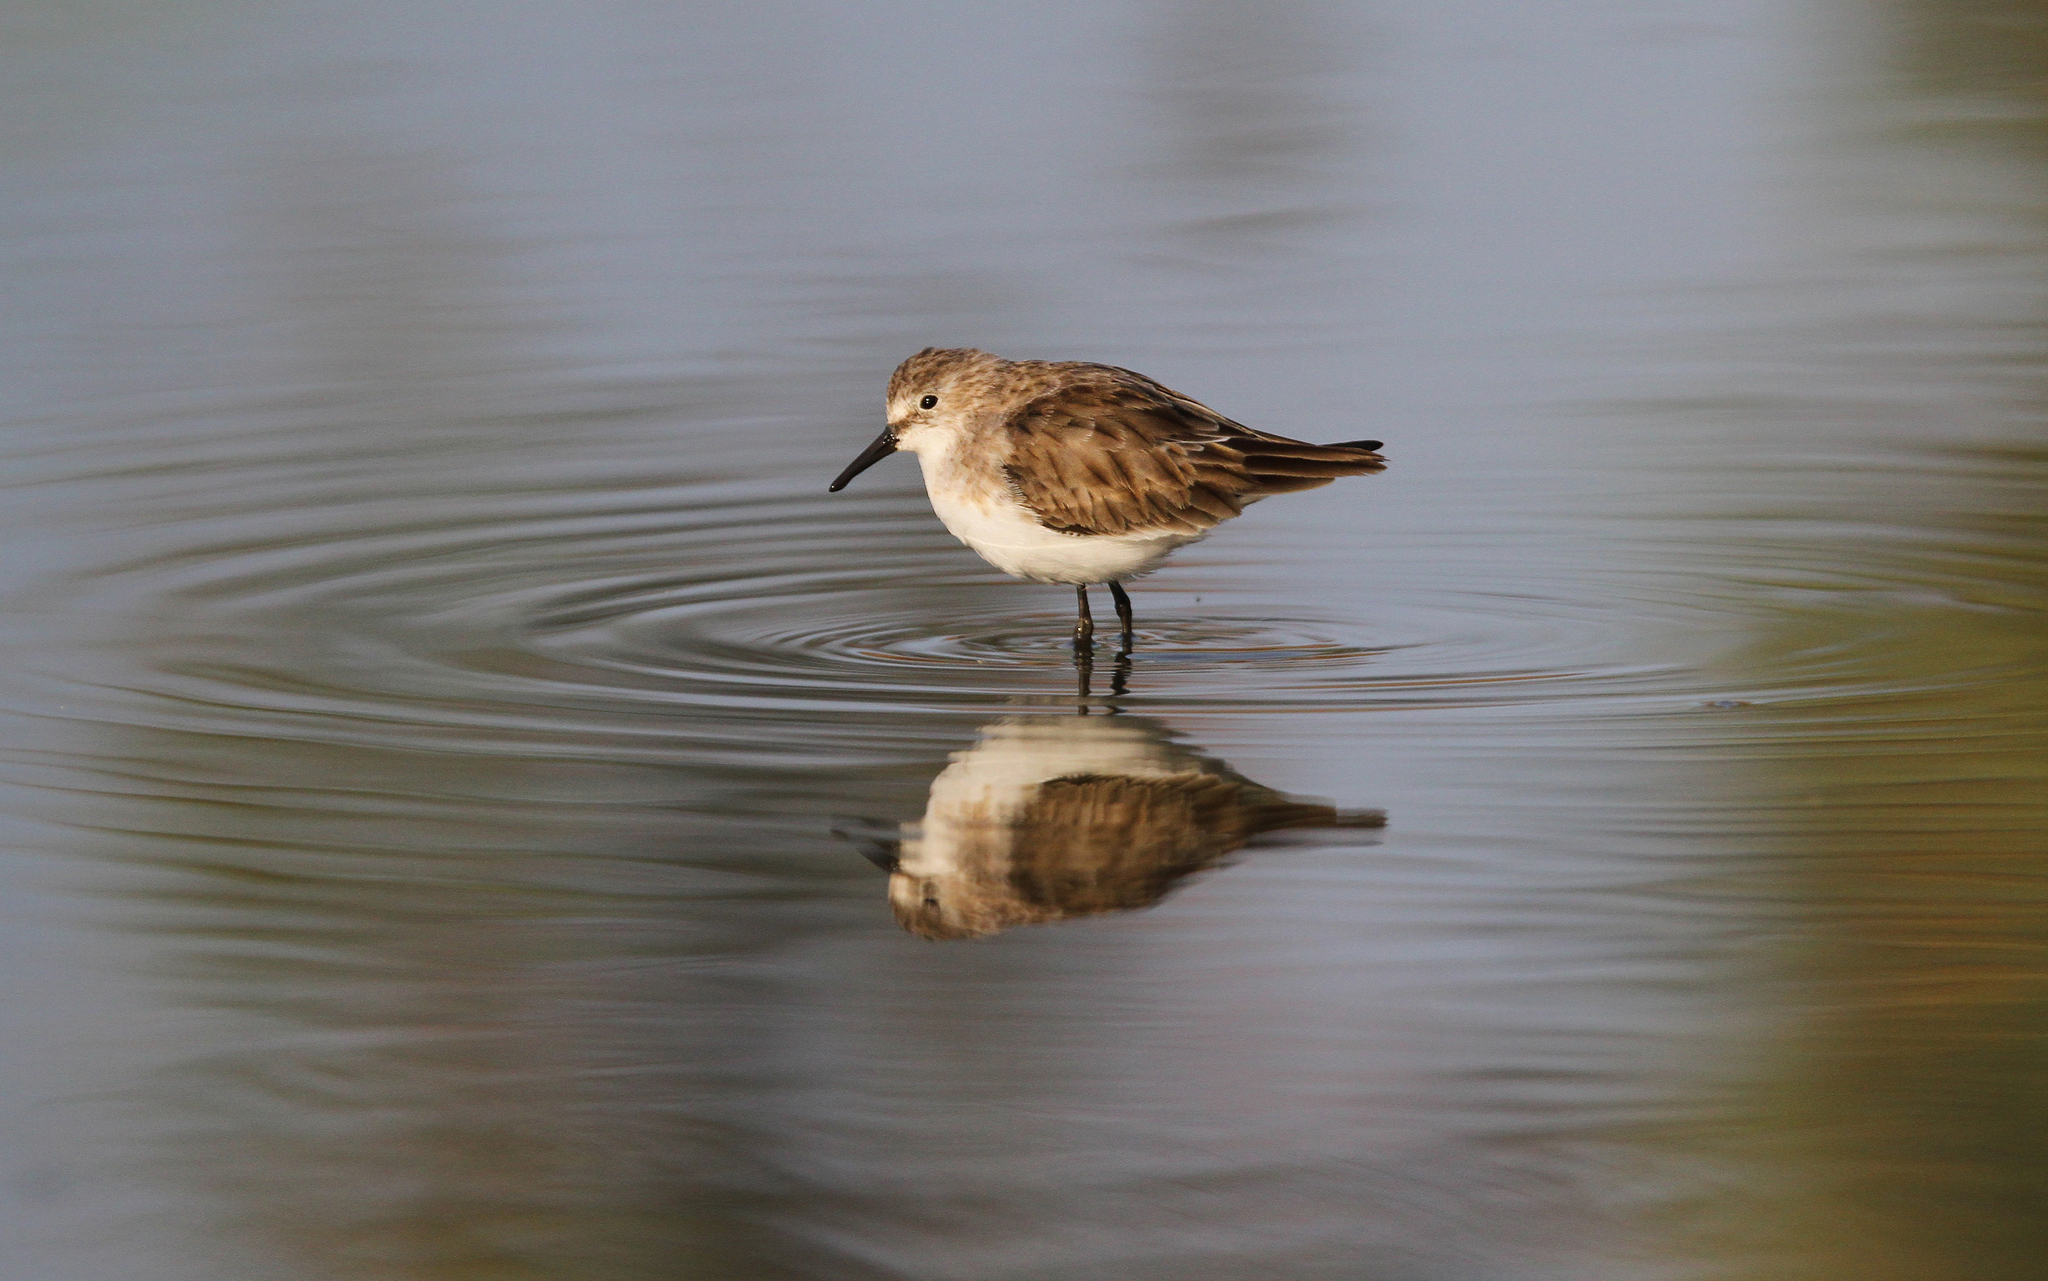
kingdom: Animalia
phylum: Chordata
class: Aves
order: Charadriiformes
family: Scolopacidae
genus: Calidris
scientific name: Calidris minuta
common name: Little stint
